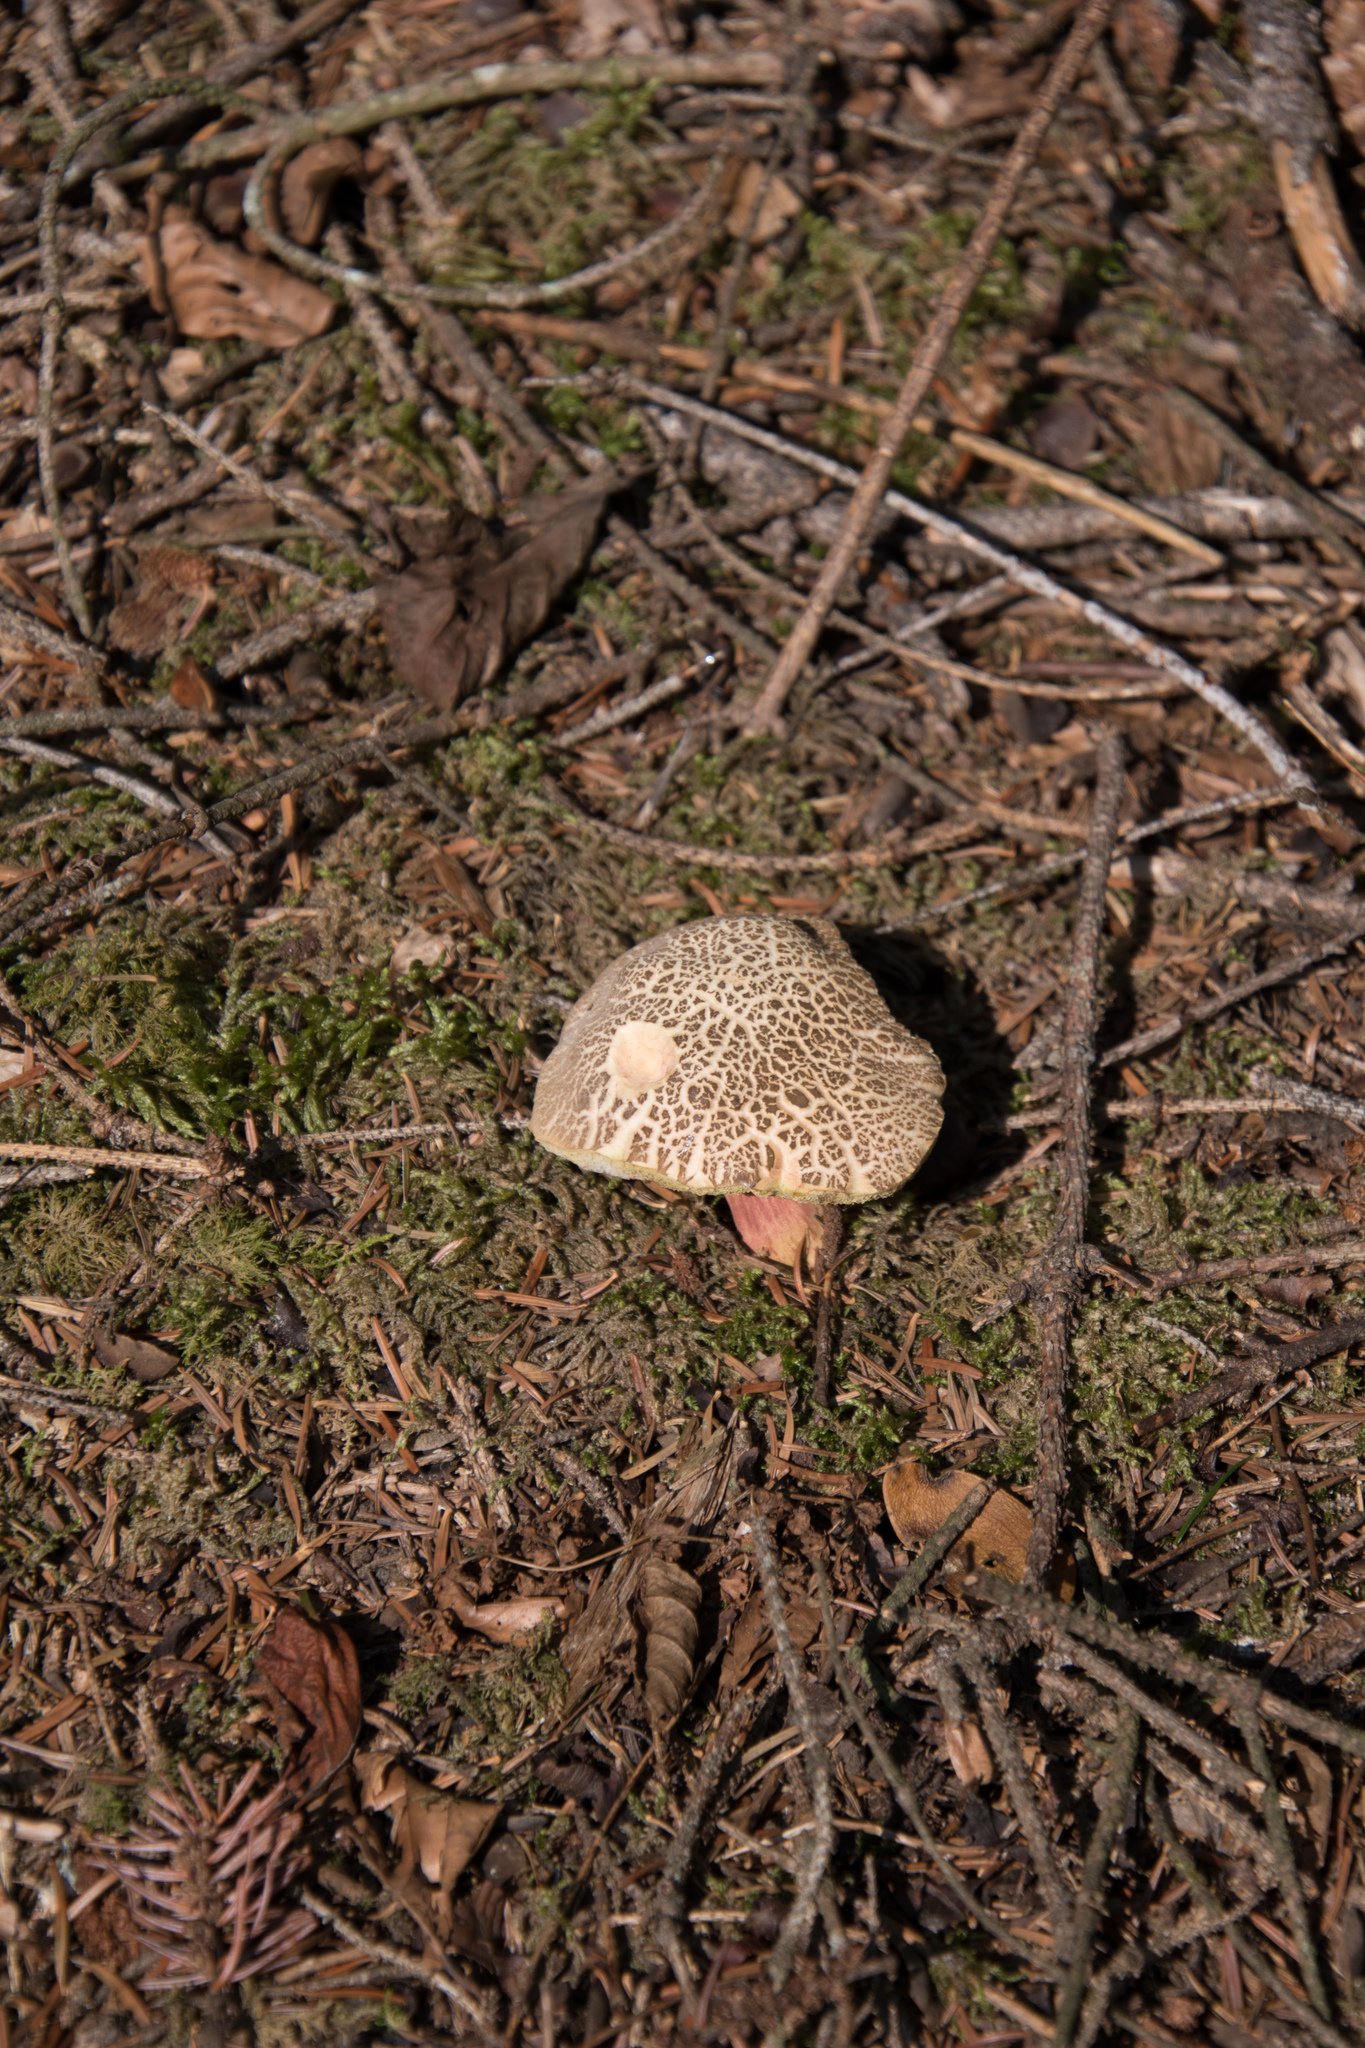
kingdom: Fungi
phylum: Basidiomycota
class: Agaricomycetes
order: Boletales
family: Boletaceae
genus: Xerocomellus
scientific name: Xerocomellus chrysenteron
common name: Red-cracking bolete
